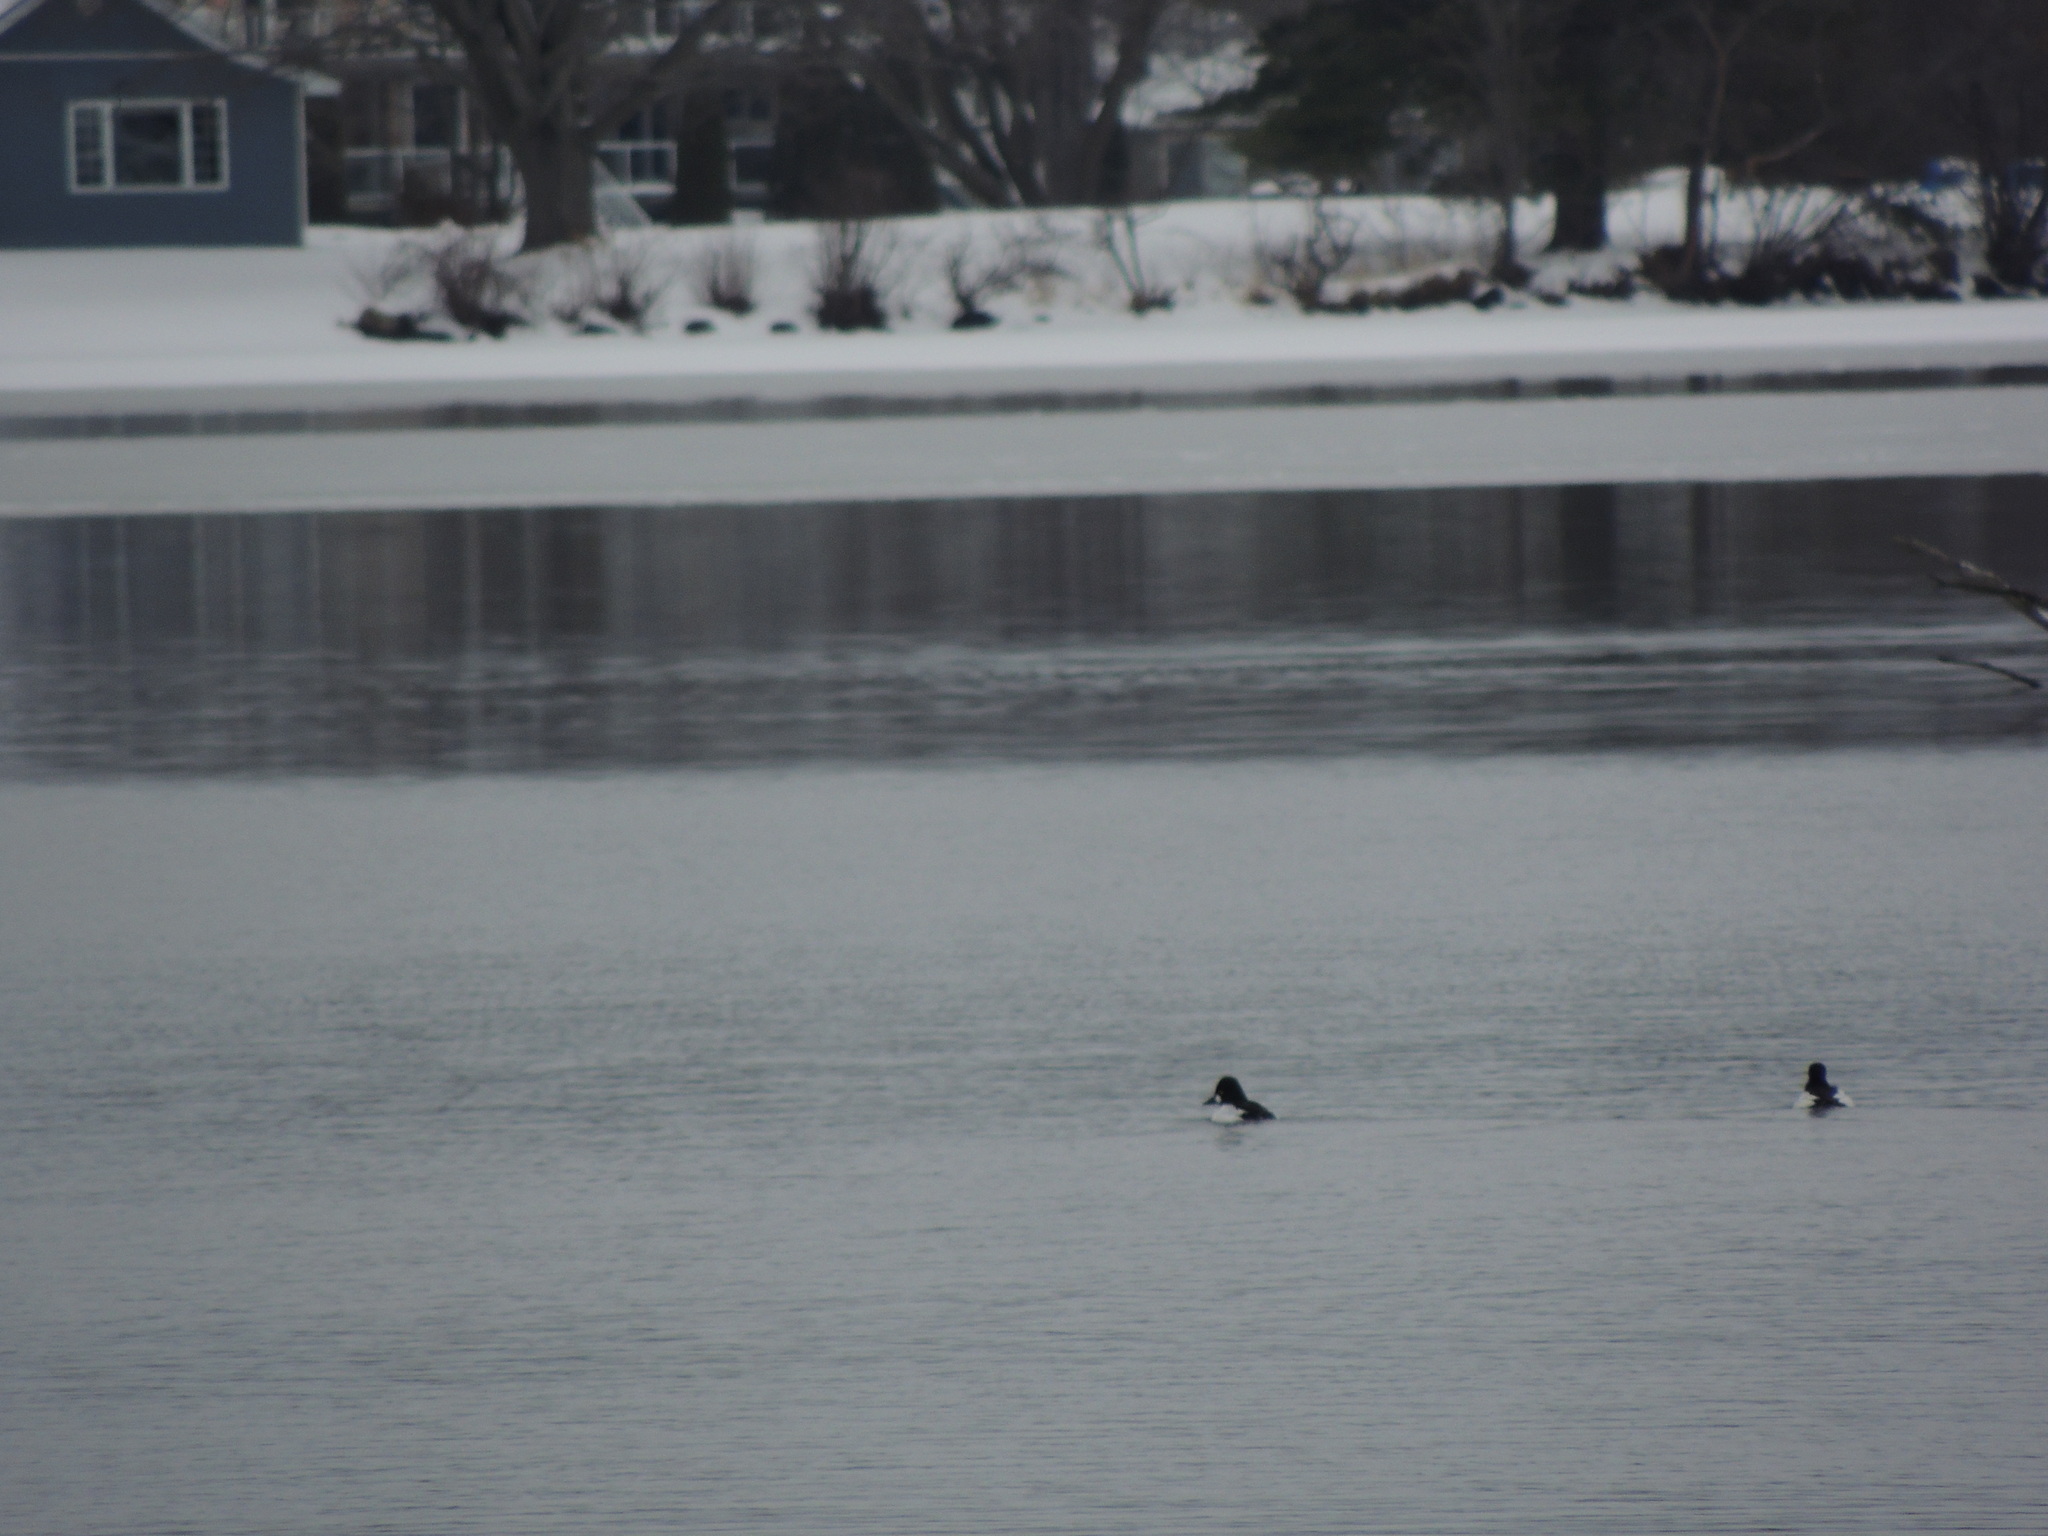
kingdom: Animalia
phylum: Chordata
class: Aves
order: Anseriformes
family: Anatidae
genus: Bucephala
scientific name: Bucephala clangula
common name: Common goldeneye
